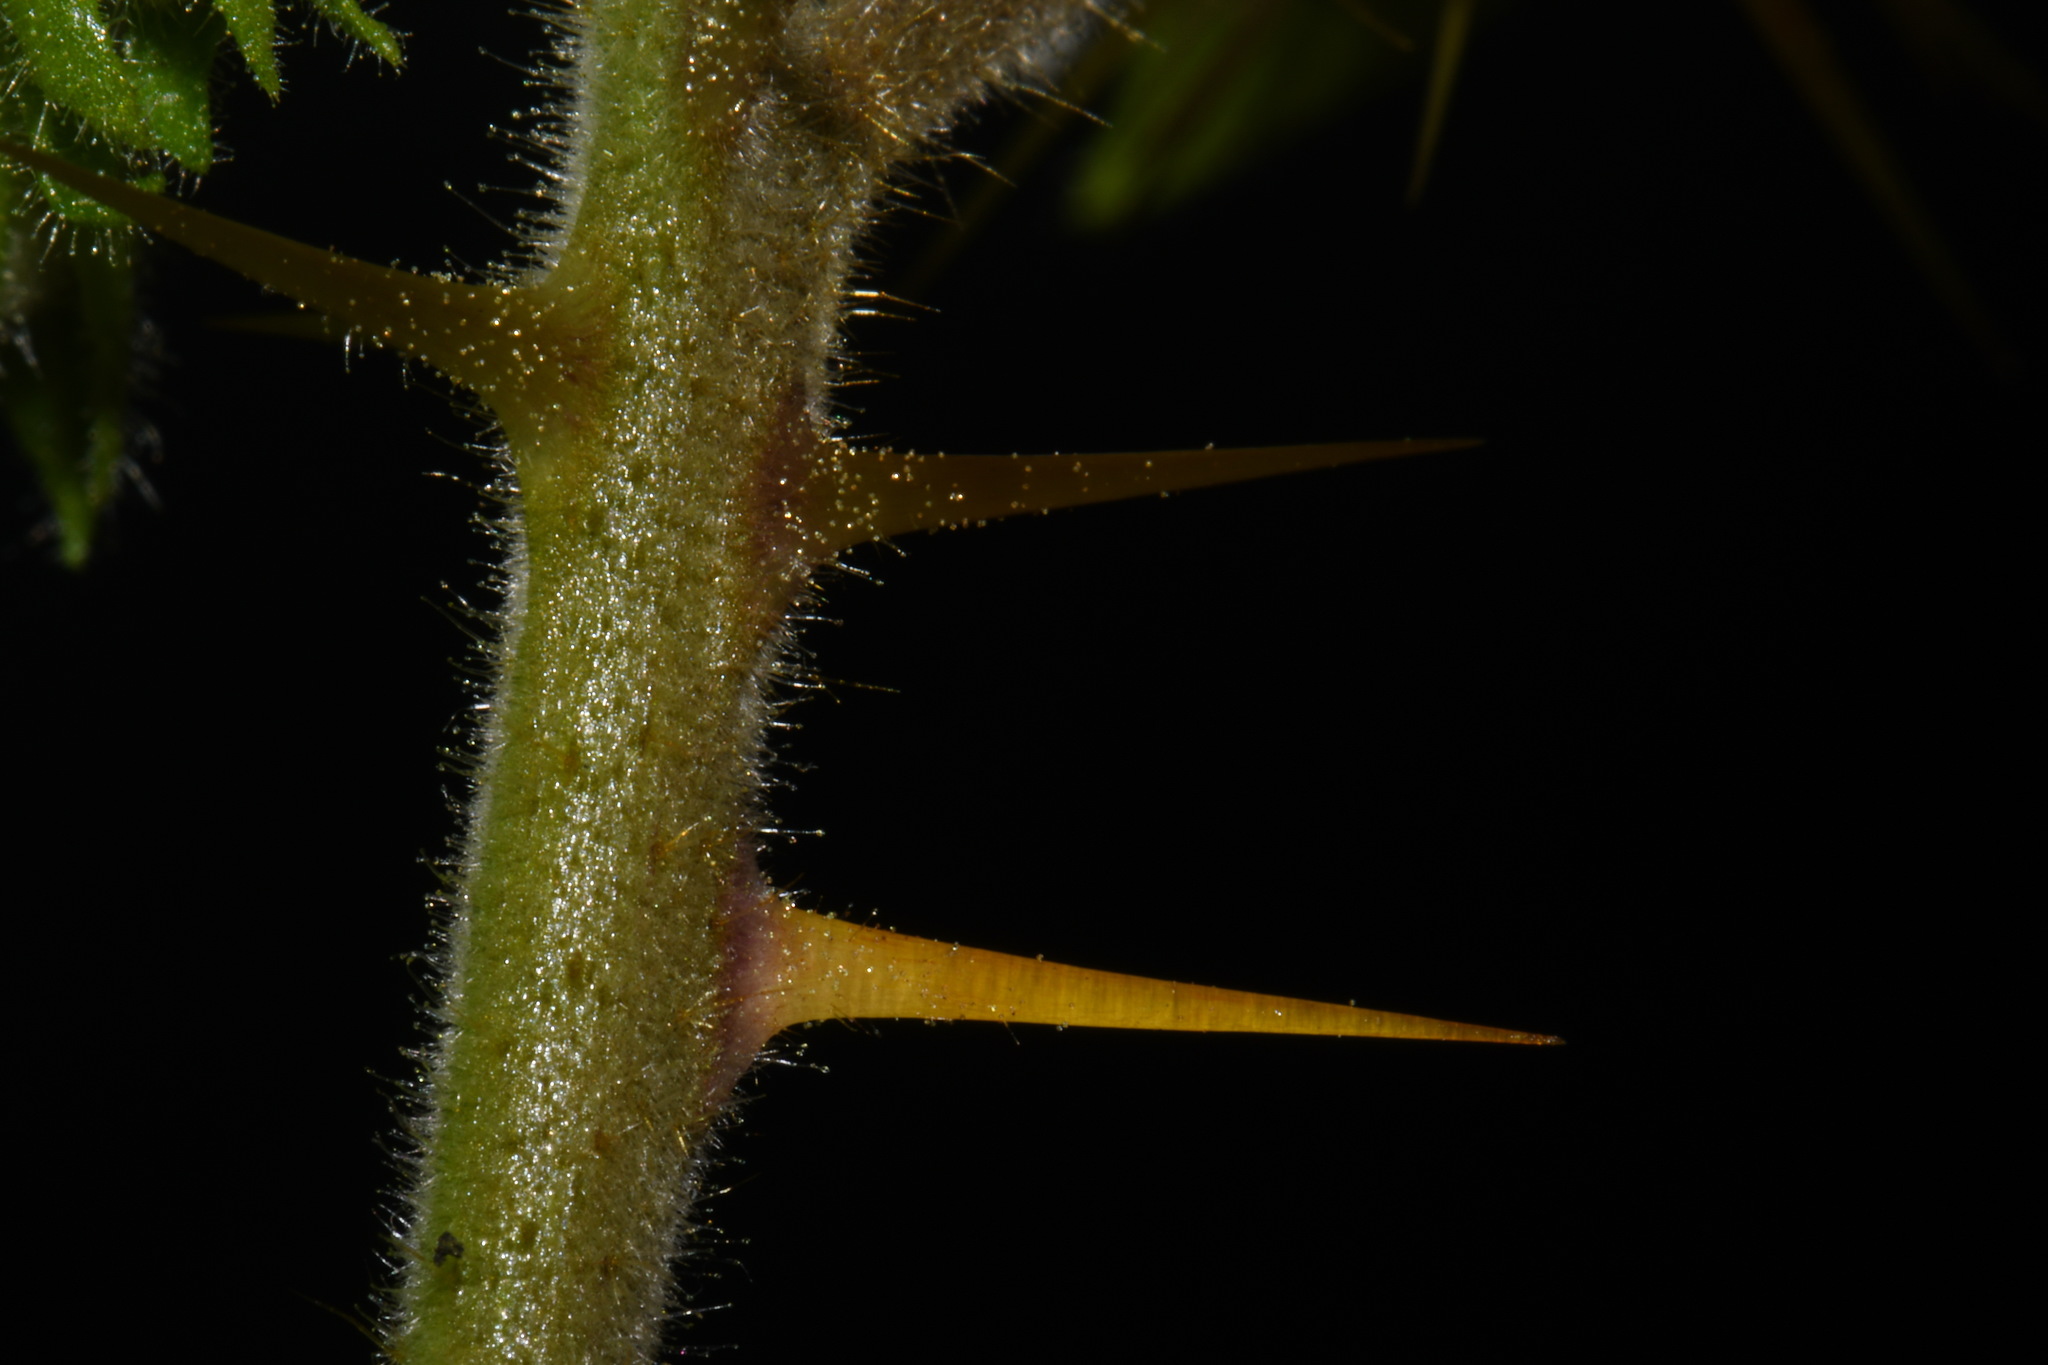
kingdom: Plantae
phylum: Tracheophyta
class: Magnoliopsida
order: Solanales
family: Solanaceae
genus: Solanum
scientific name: Solanum sisymbriifolium
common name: Red buffalo-bur
